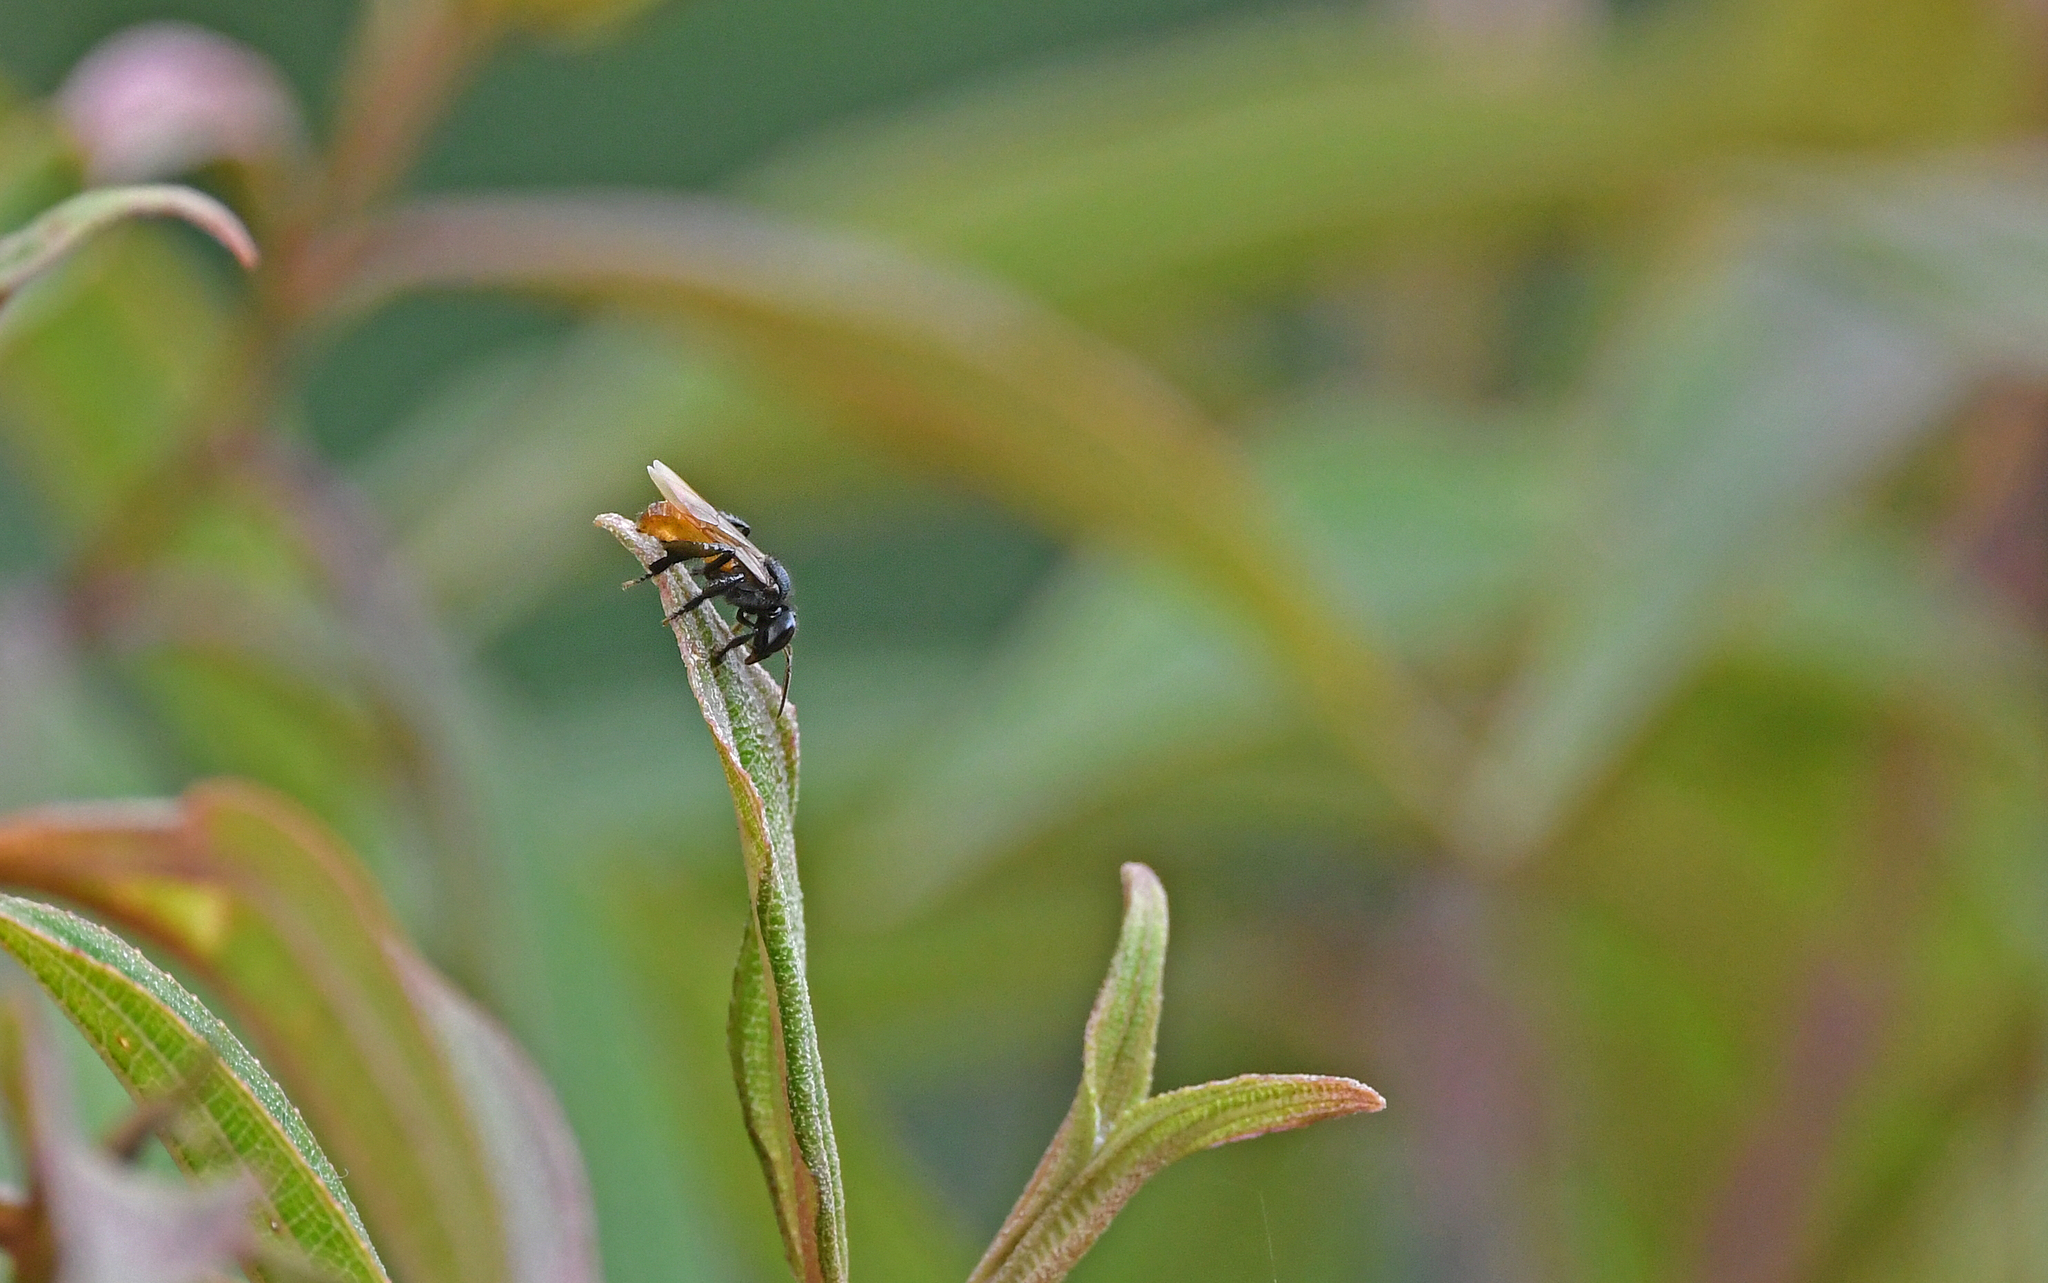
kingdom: Animalia
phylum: Arthropoda
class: Insecta
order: Hymenoptera
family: Apidae
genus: Trigona
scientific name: Trigona fulviventris
